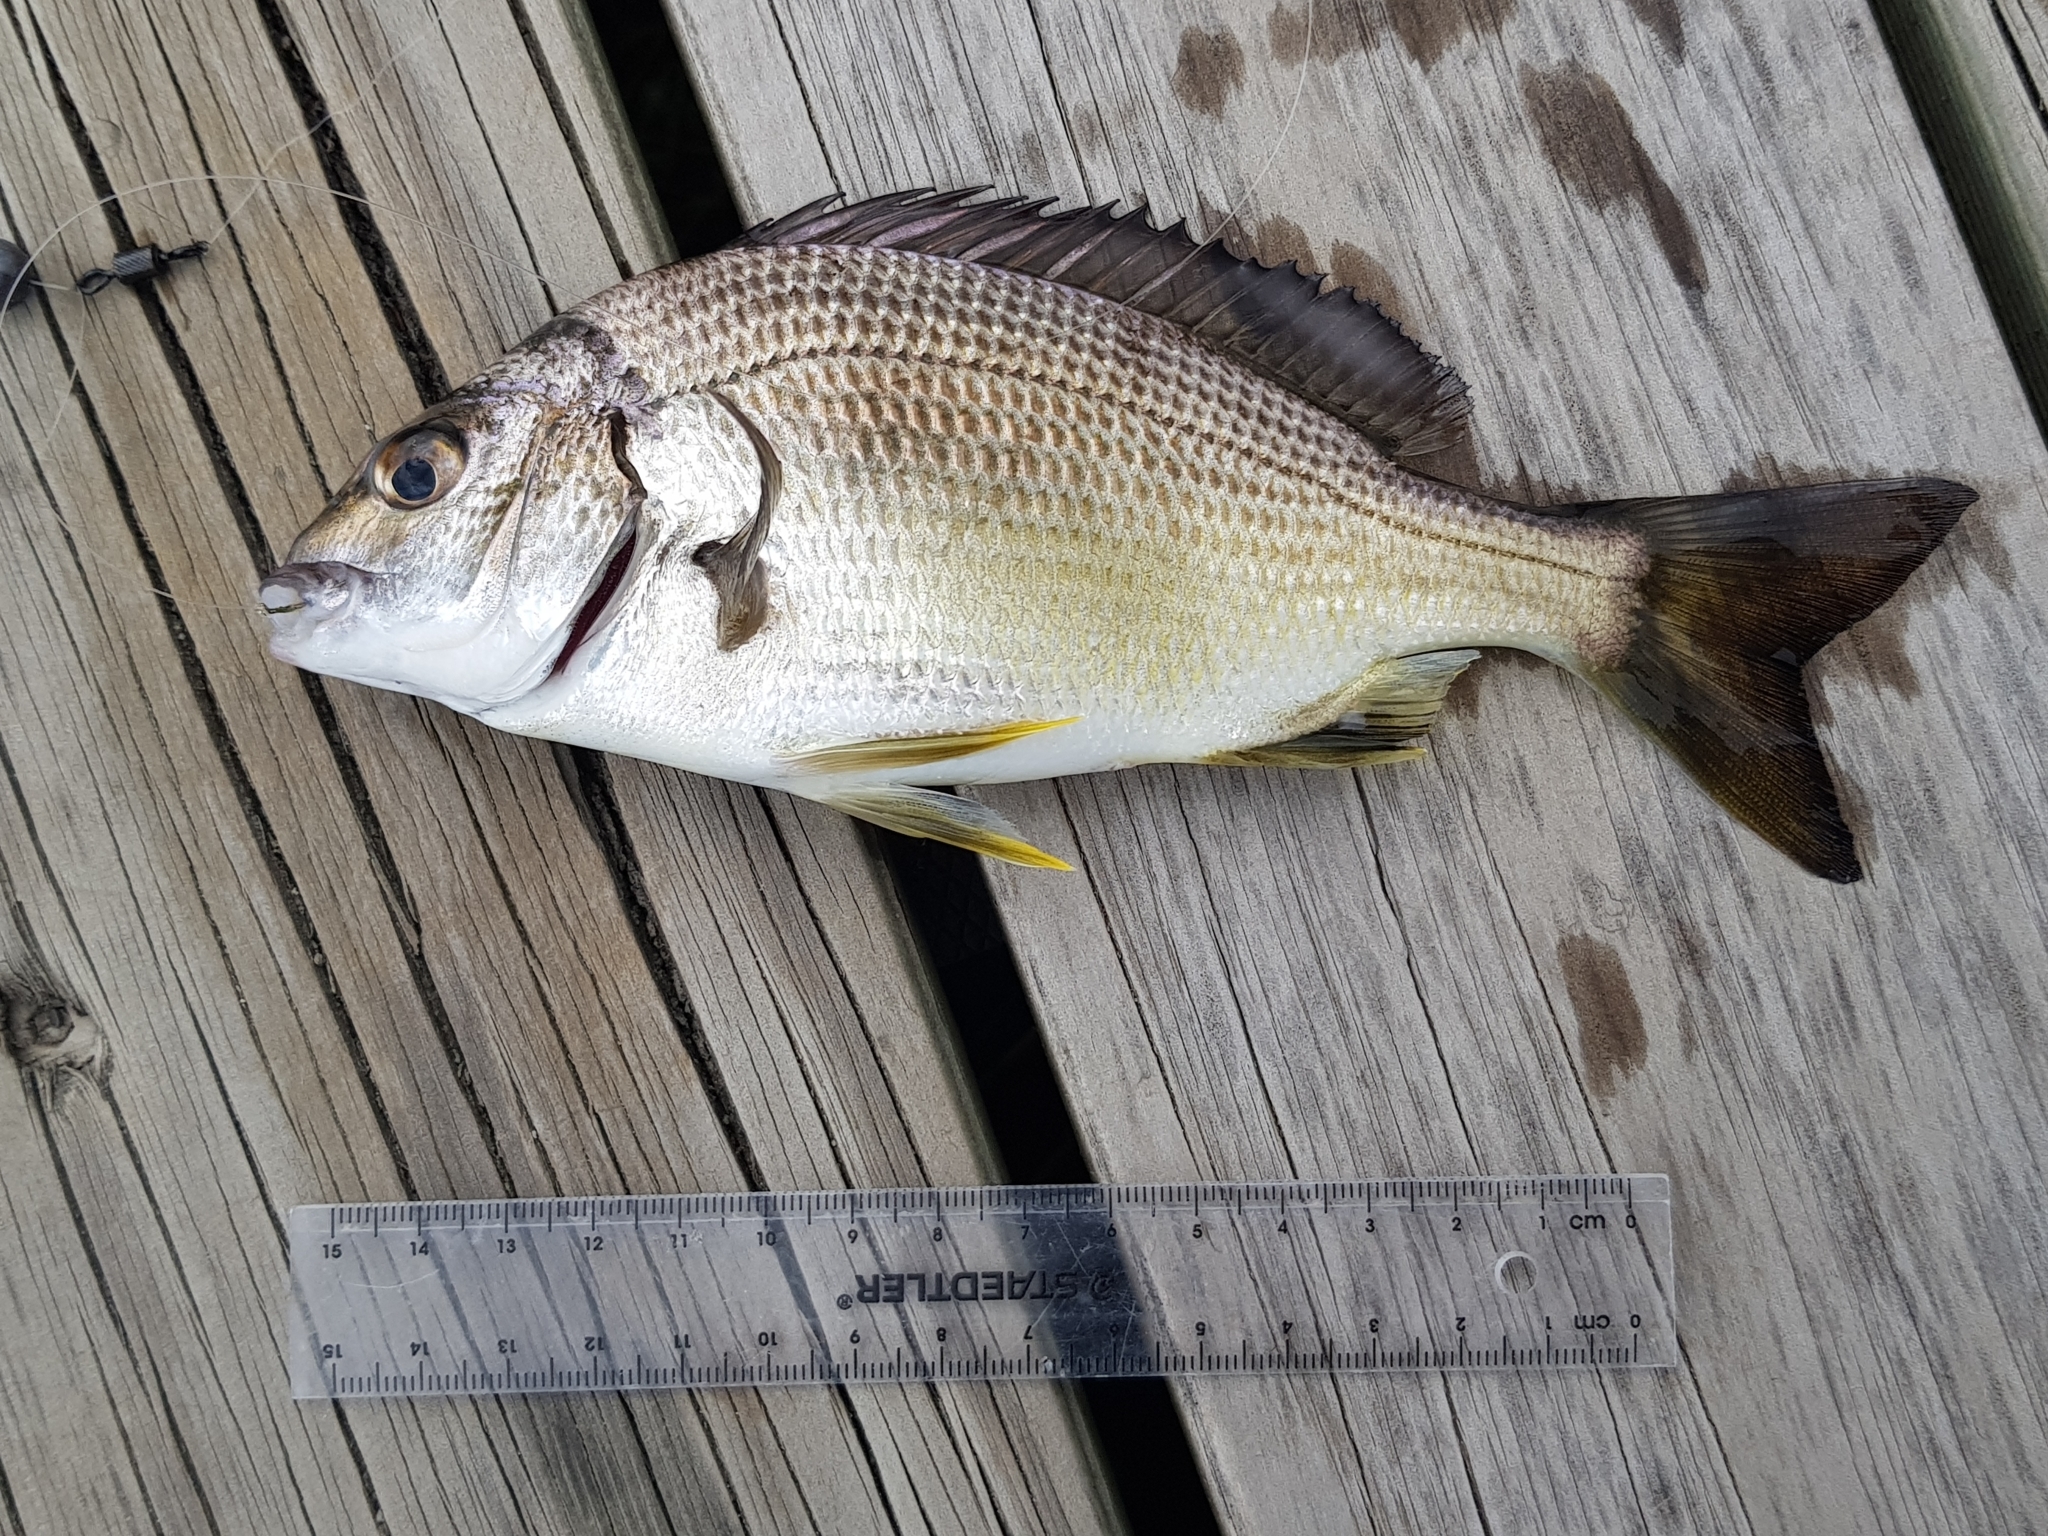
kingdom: Animalia
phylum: Chordata
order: Perciformes
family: Sparidae
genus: Acanthopagrus
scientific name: Acanthopagrus butcheri
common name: Black bream
